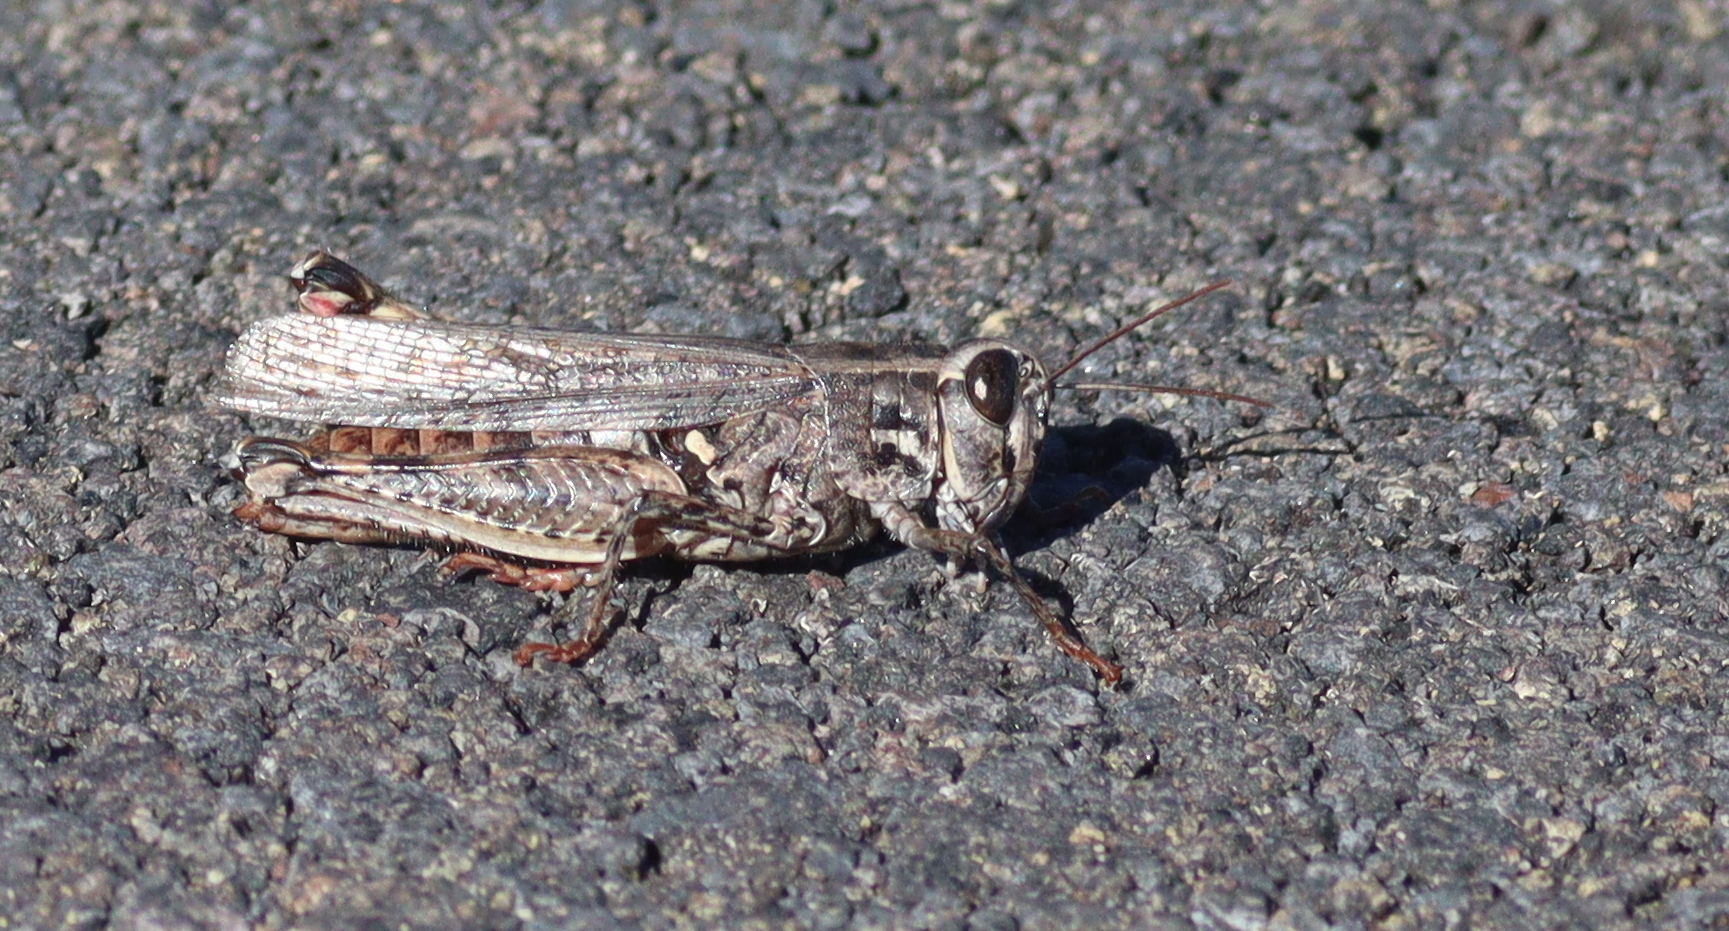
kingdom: Animalia
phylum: Arthropoda
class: Insecta
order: Orthoptera
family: Acrididae
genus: Calliptamus
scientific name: Calliptamus plebeius
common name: Canarian pincer grasshopper
